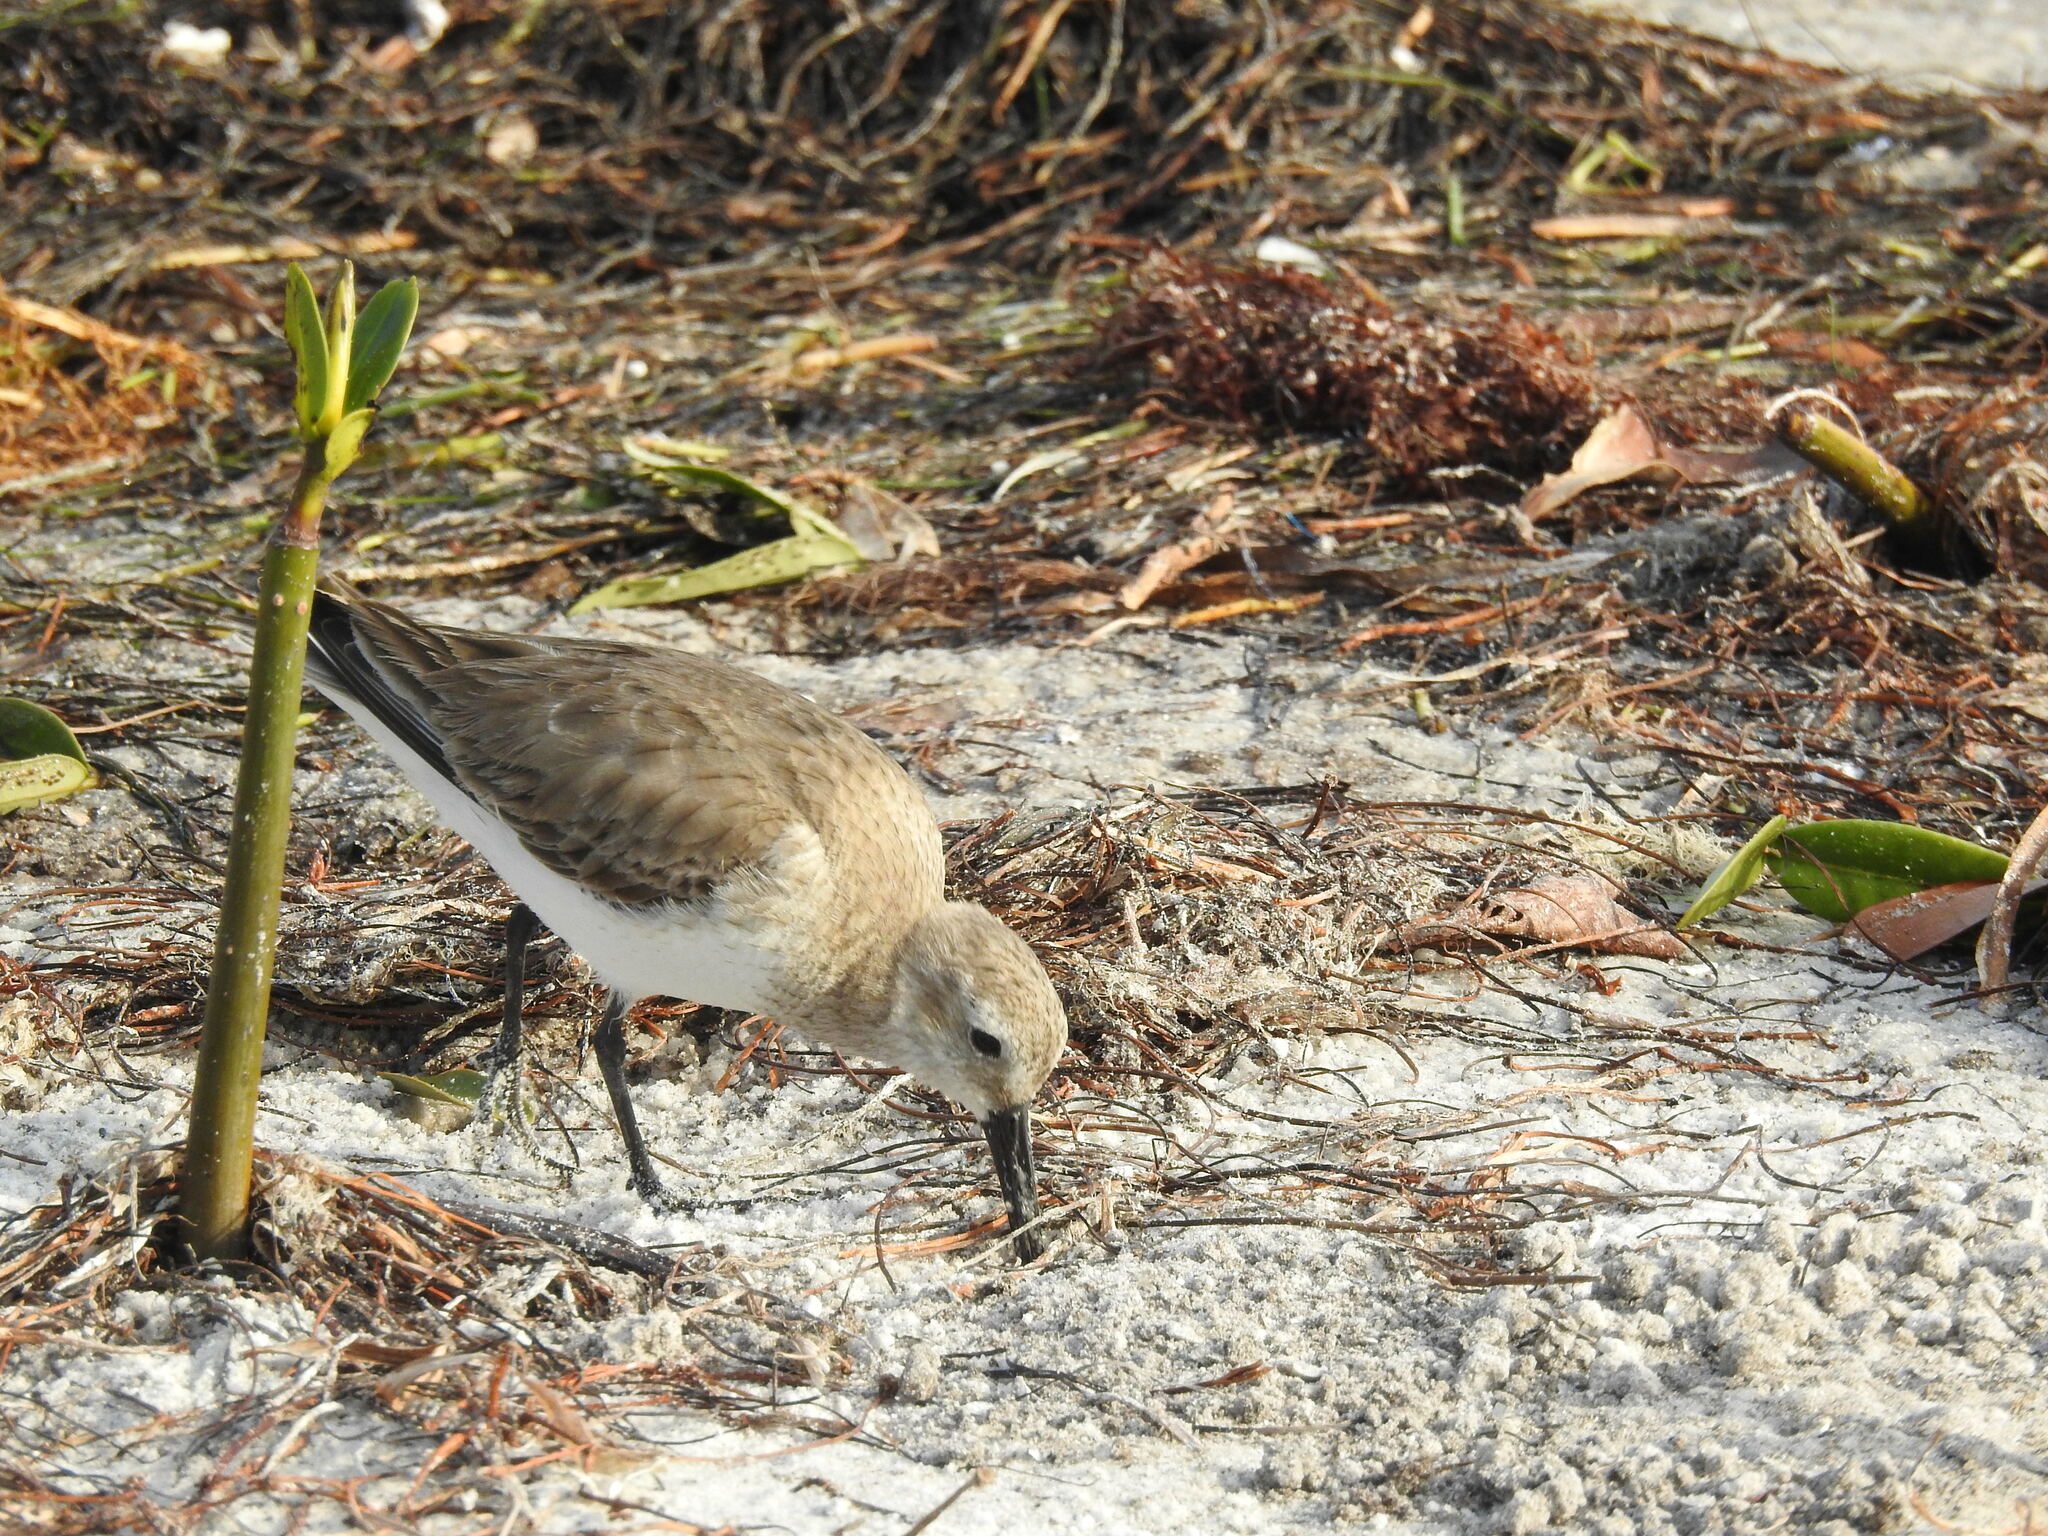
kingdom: Animalia
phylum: Chordata
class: Aves
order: Charadriiformes
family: Scolopacidae
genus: Calidris
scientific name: Calidris alpina
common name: Dunlin
